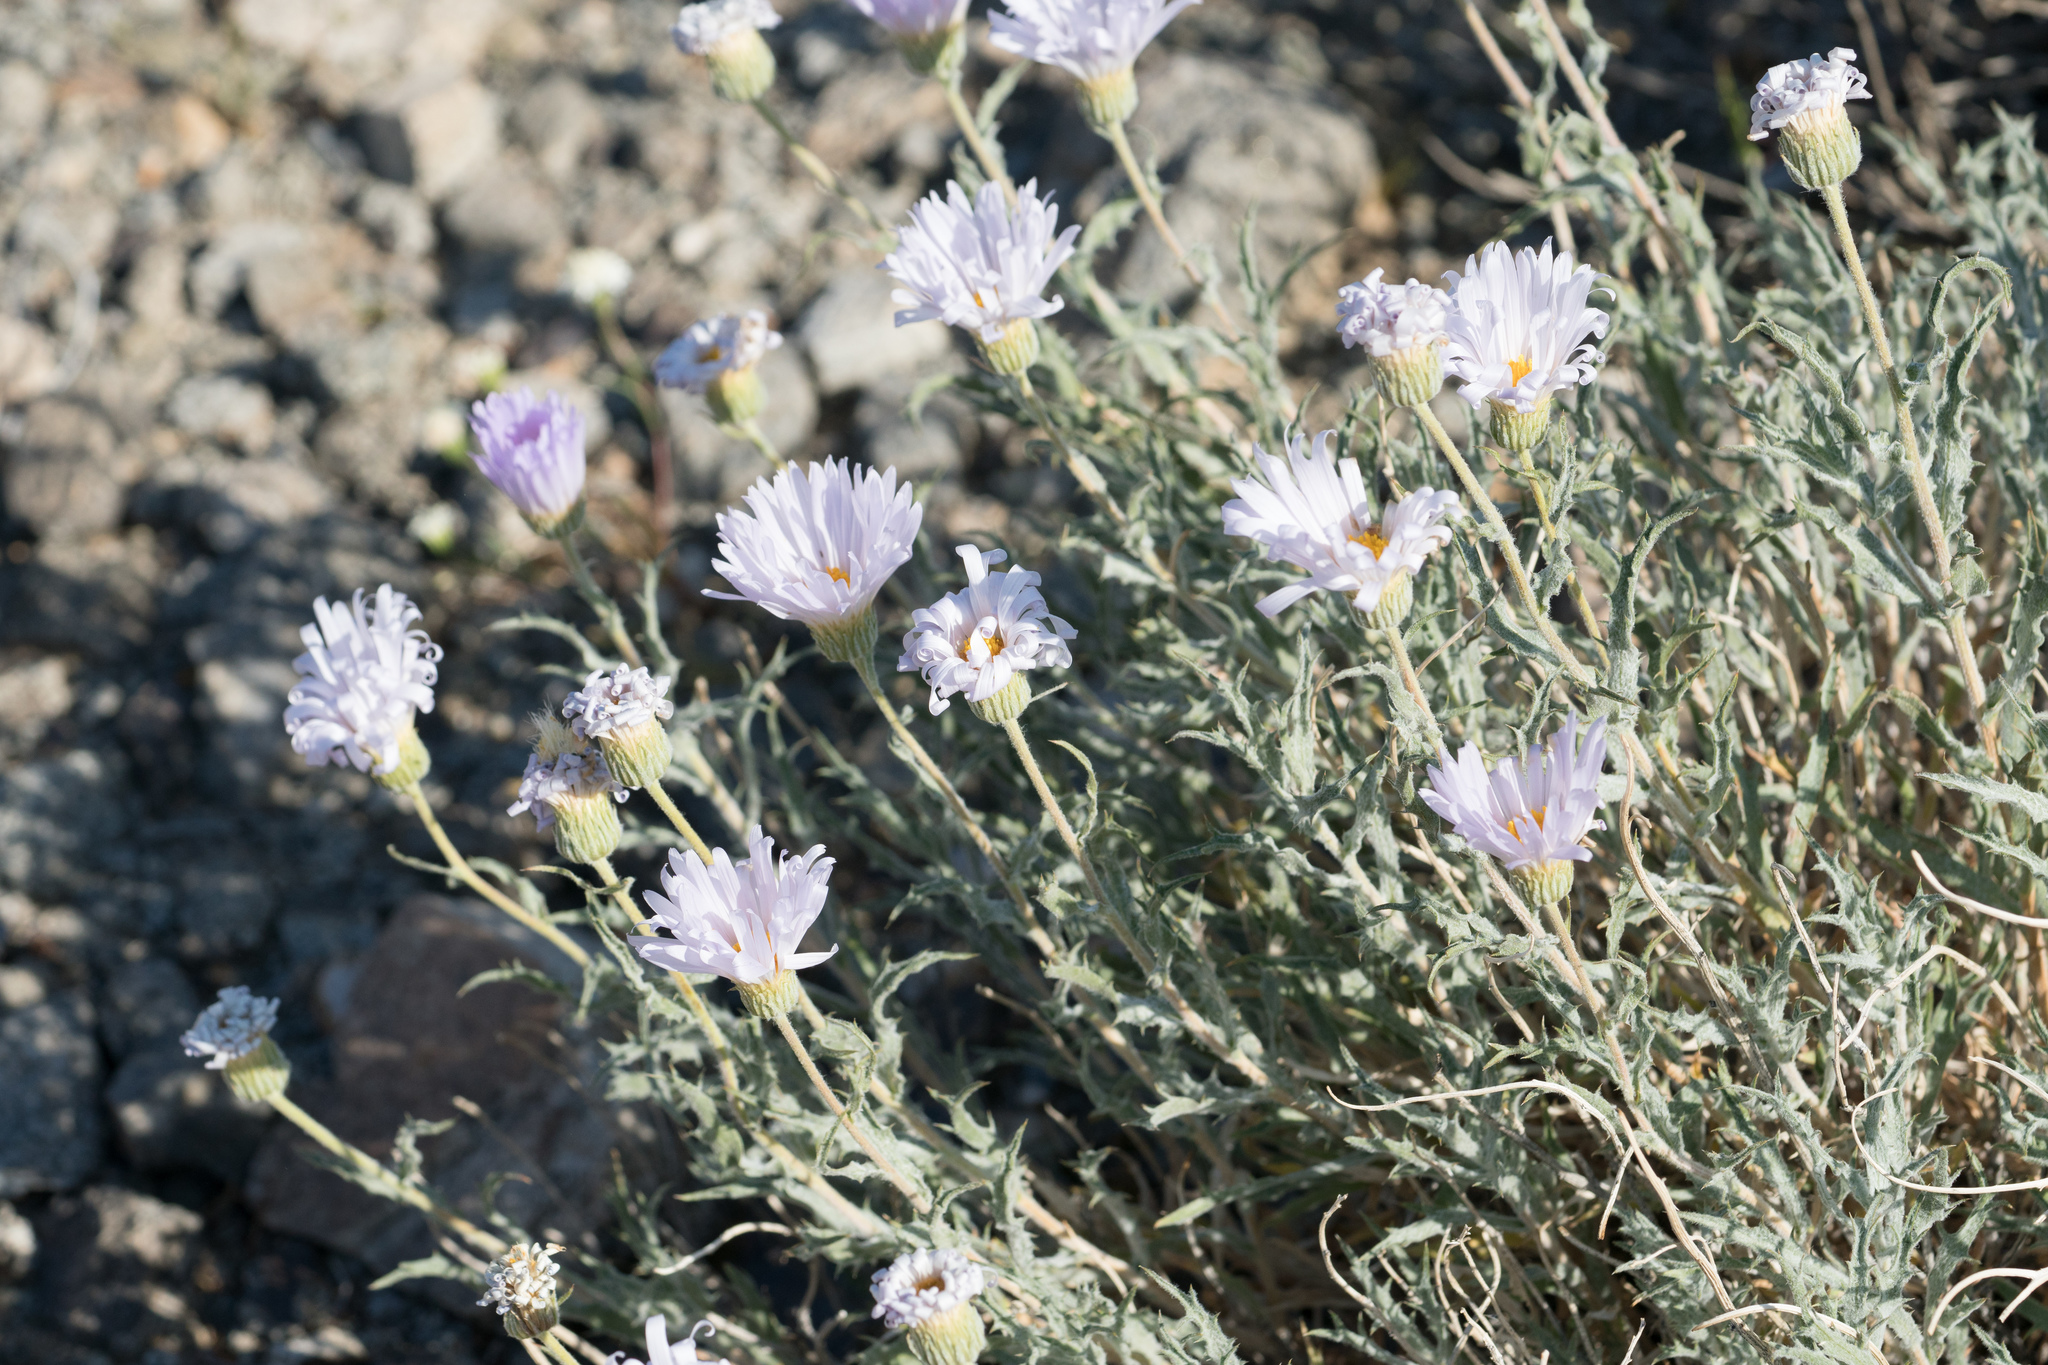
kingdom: Plantae
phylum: Tracheophyta
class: Magnoliopsida
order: Asterales
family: Asteraceae
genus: Xylorhiza
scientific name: Xylorhiza tortifolia
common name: Hurt-leaf woody-aster
